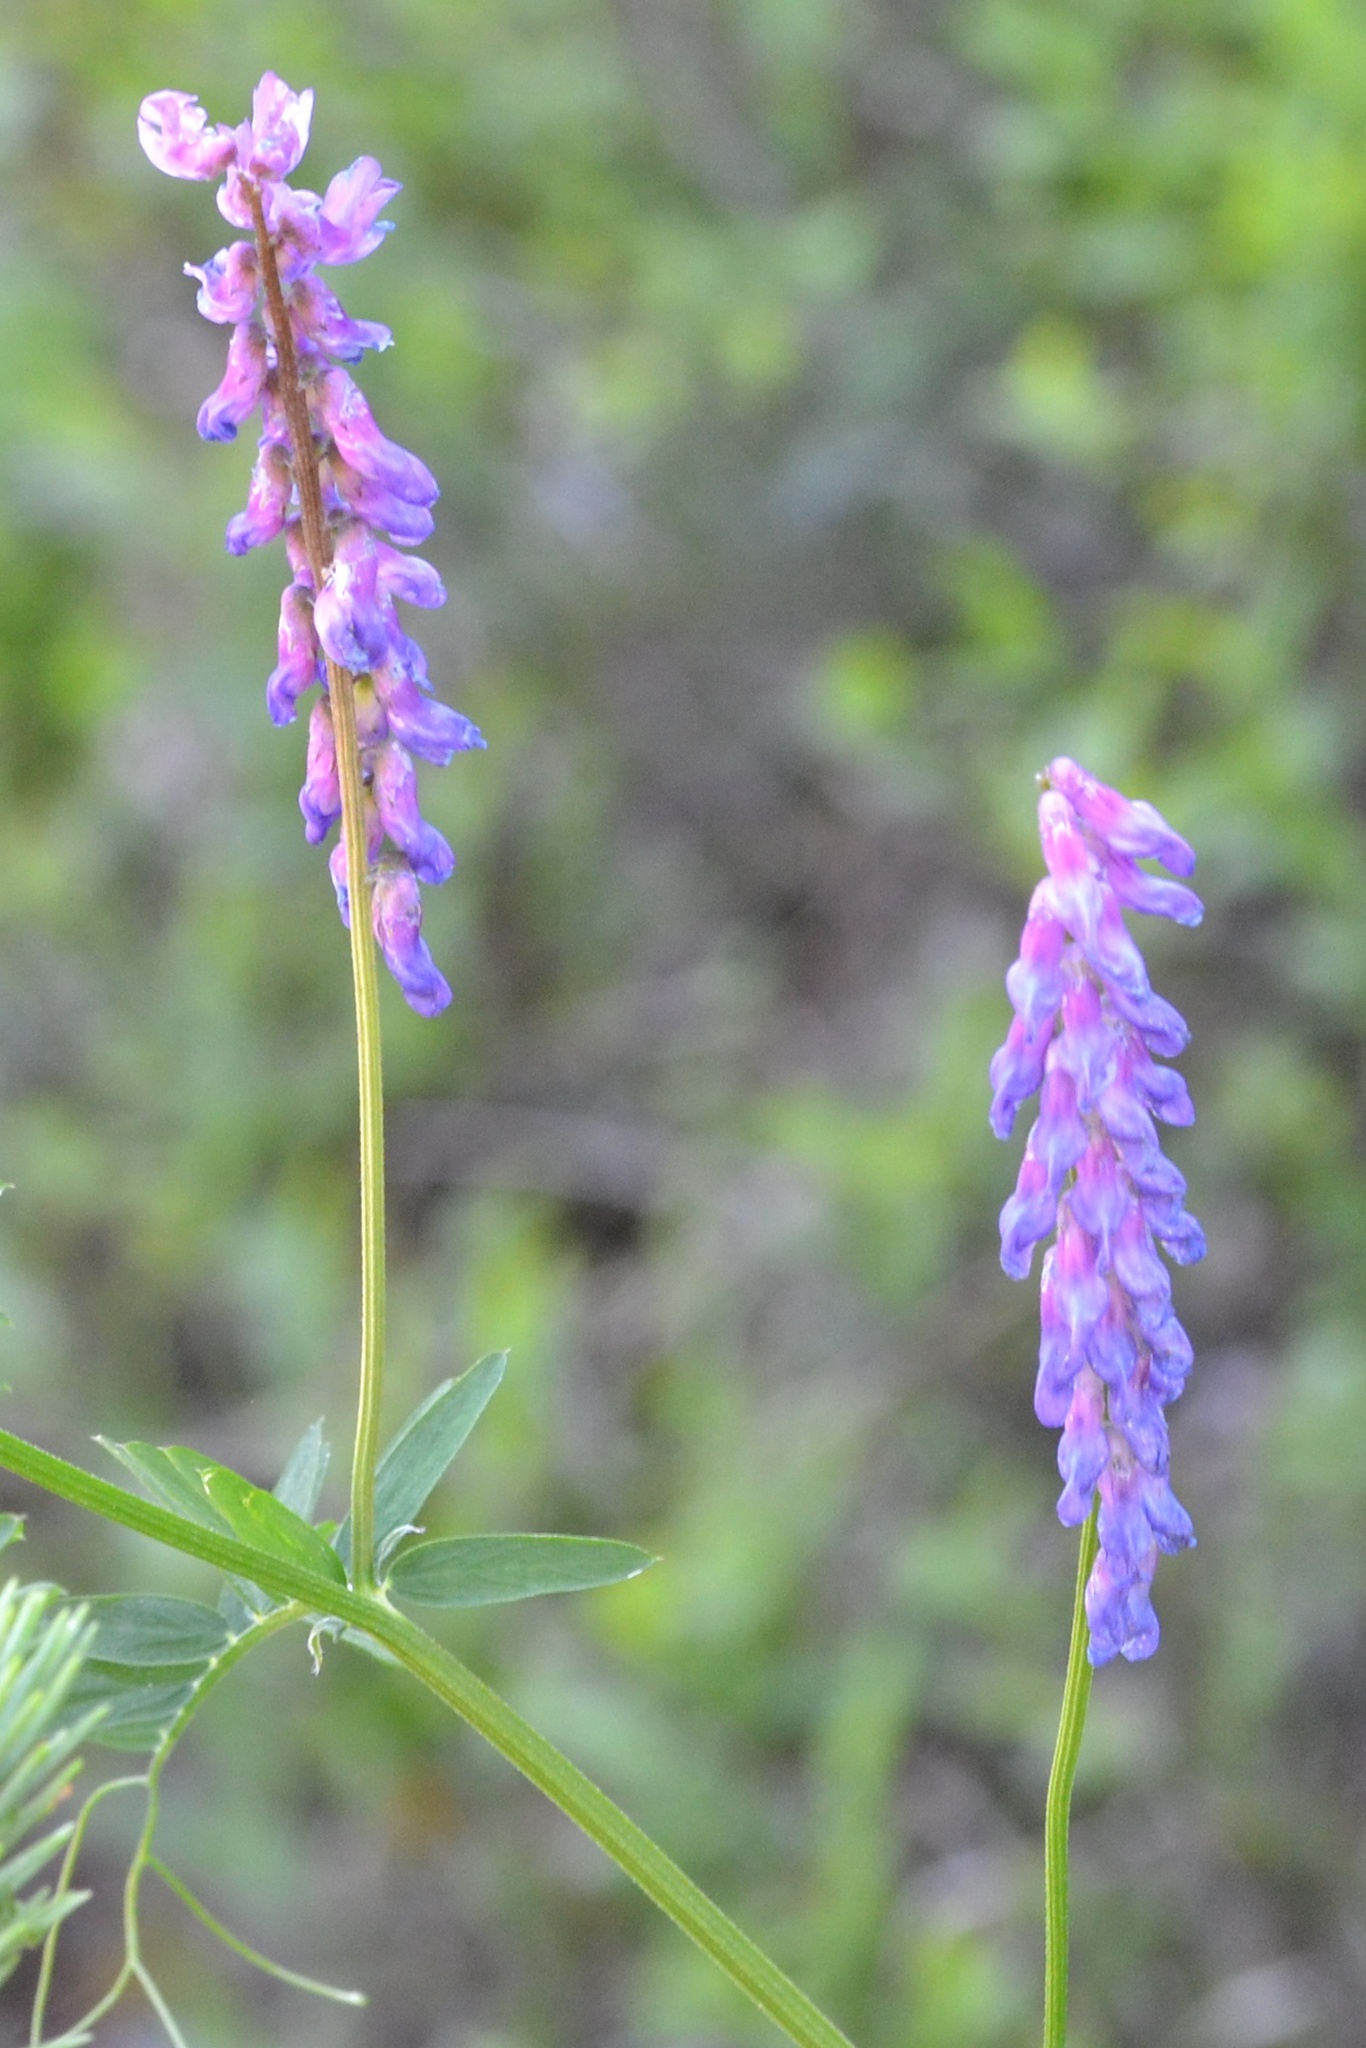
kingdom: Plantae
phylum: Tracheophyta
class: Magnoliopsida
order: Fabales
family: Fabaceae
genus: Vicia
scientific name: Vicia cracca
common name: Bird vetch
